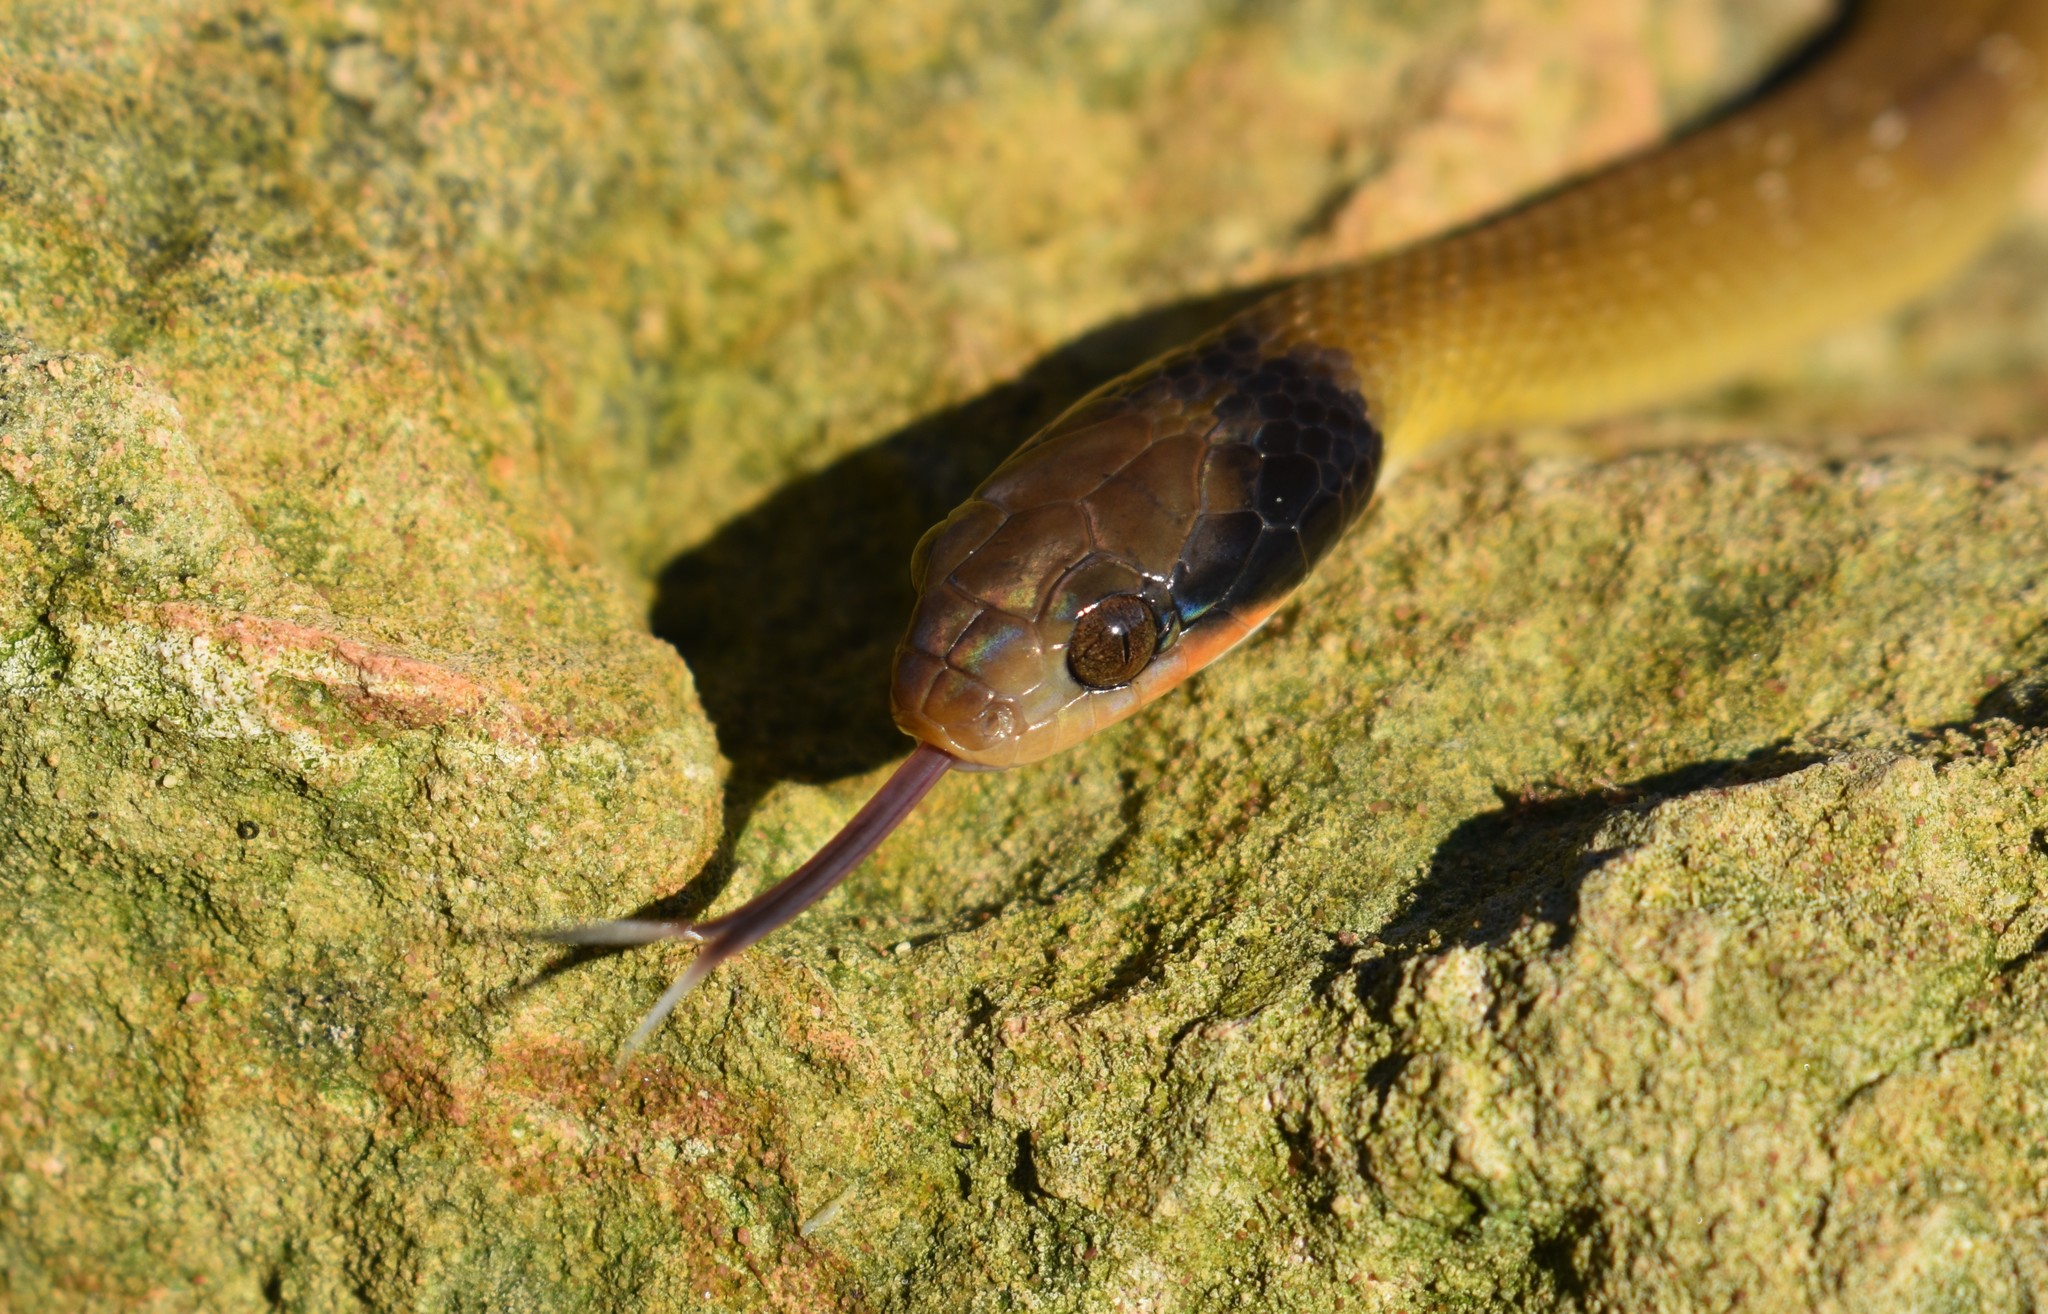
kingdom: Animalia
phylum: Chordata
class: Squamata
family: Colubridae
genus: Crotaphopeltis
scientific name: Crotaphopeltis hotamboeia
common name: Red-lipped snake
